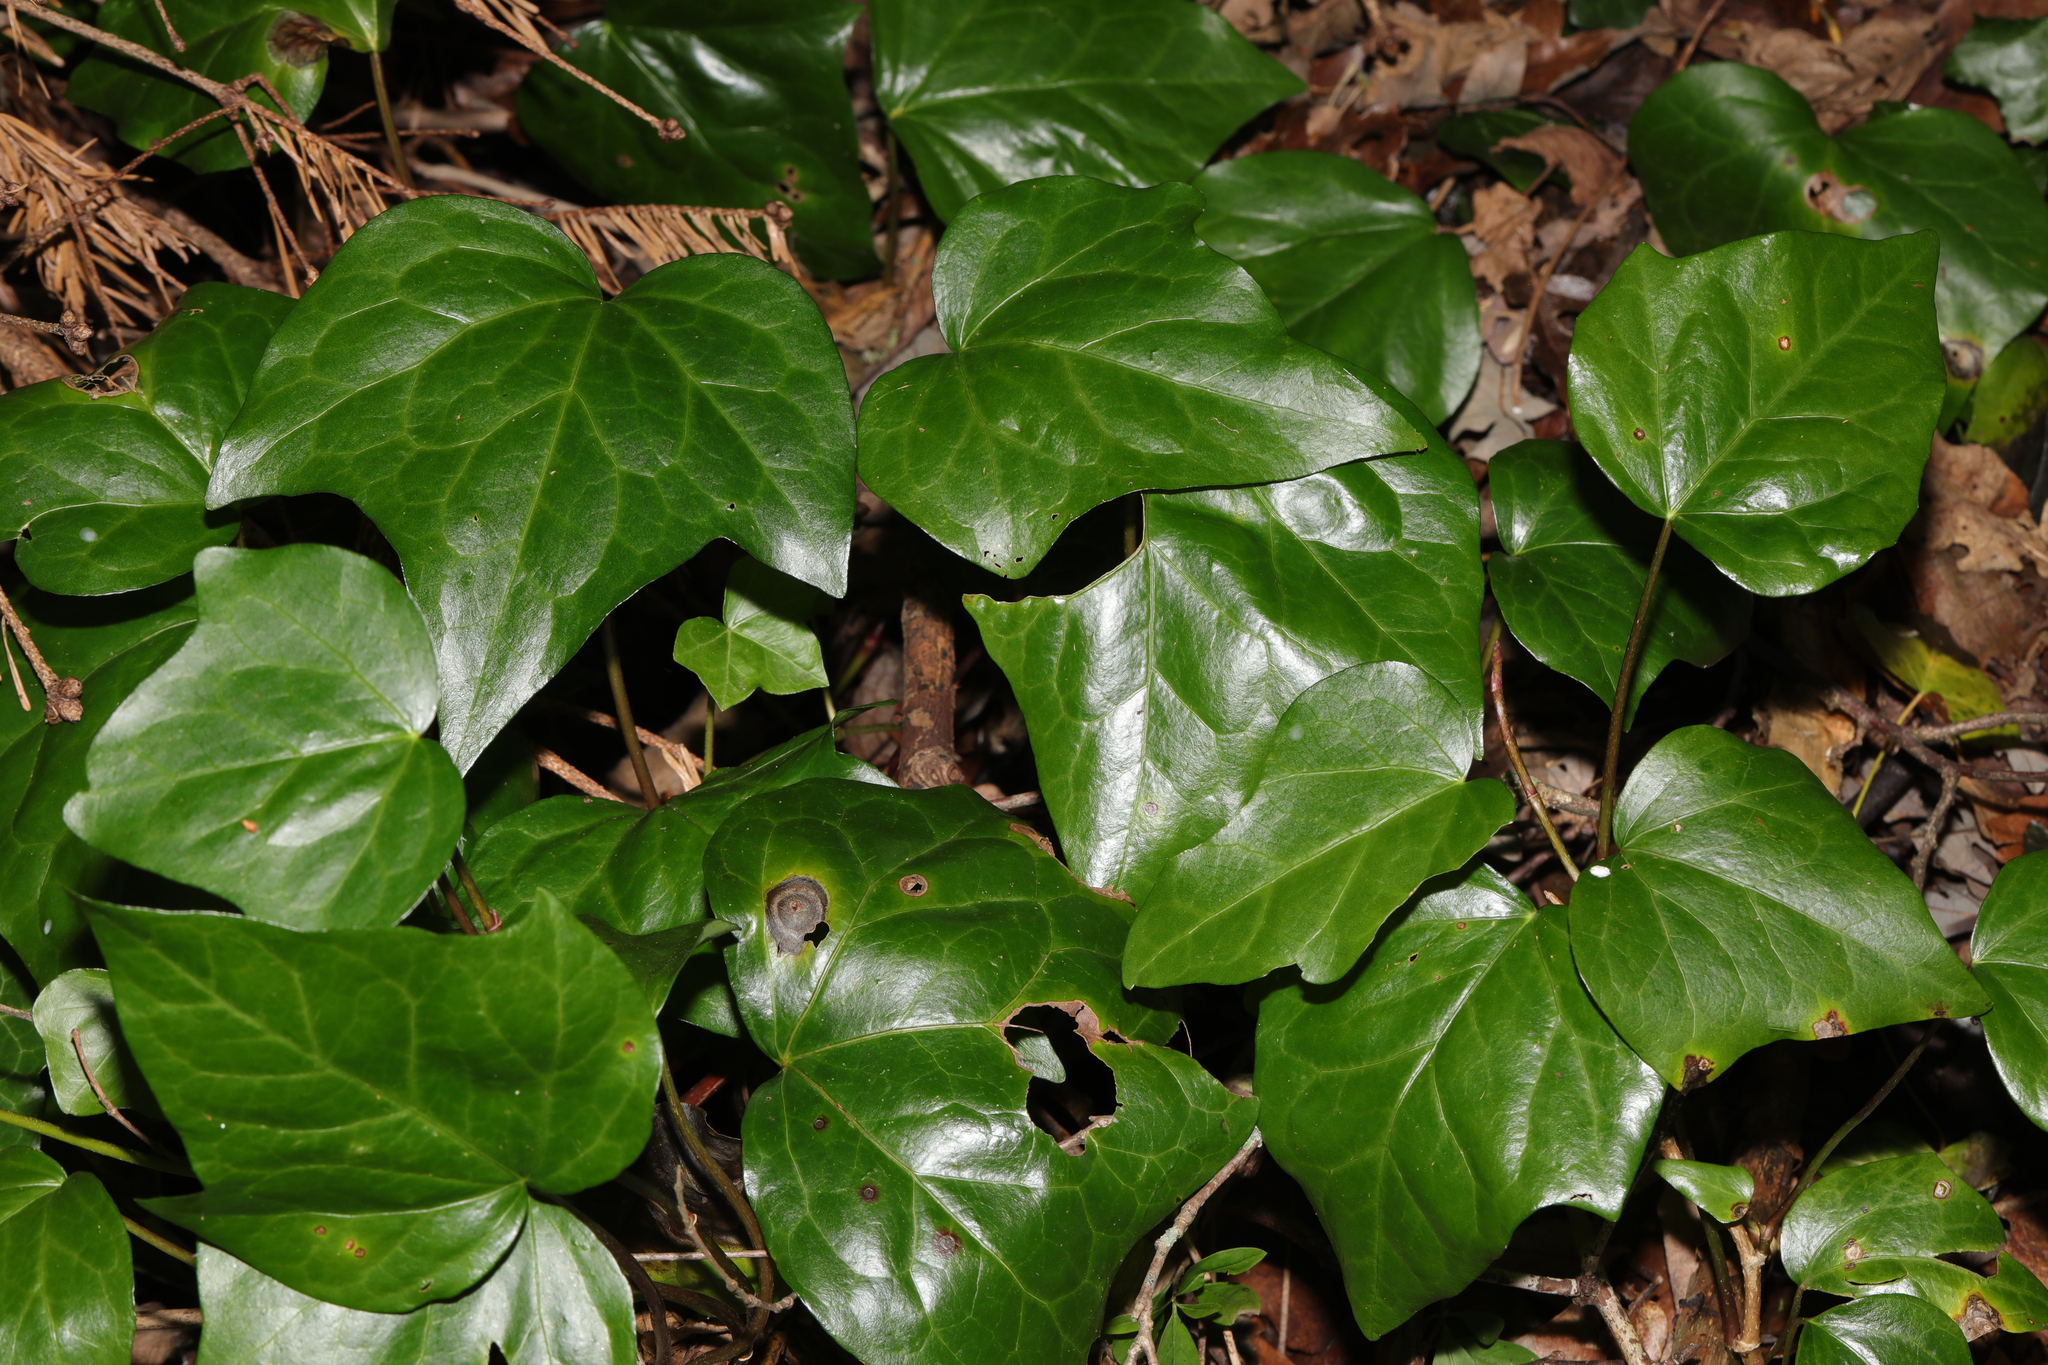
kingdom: Plantae
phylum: Tracheophyta
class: Magnoliopsida
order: Apiales
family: Araliaceae
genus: Hedera
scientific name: Hedera colchica
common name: Persian ivy
